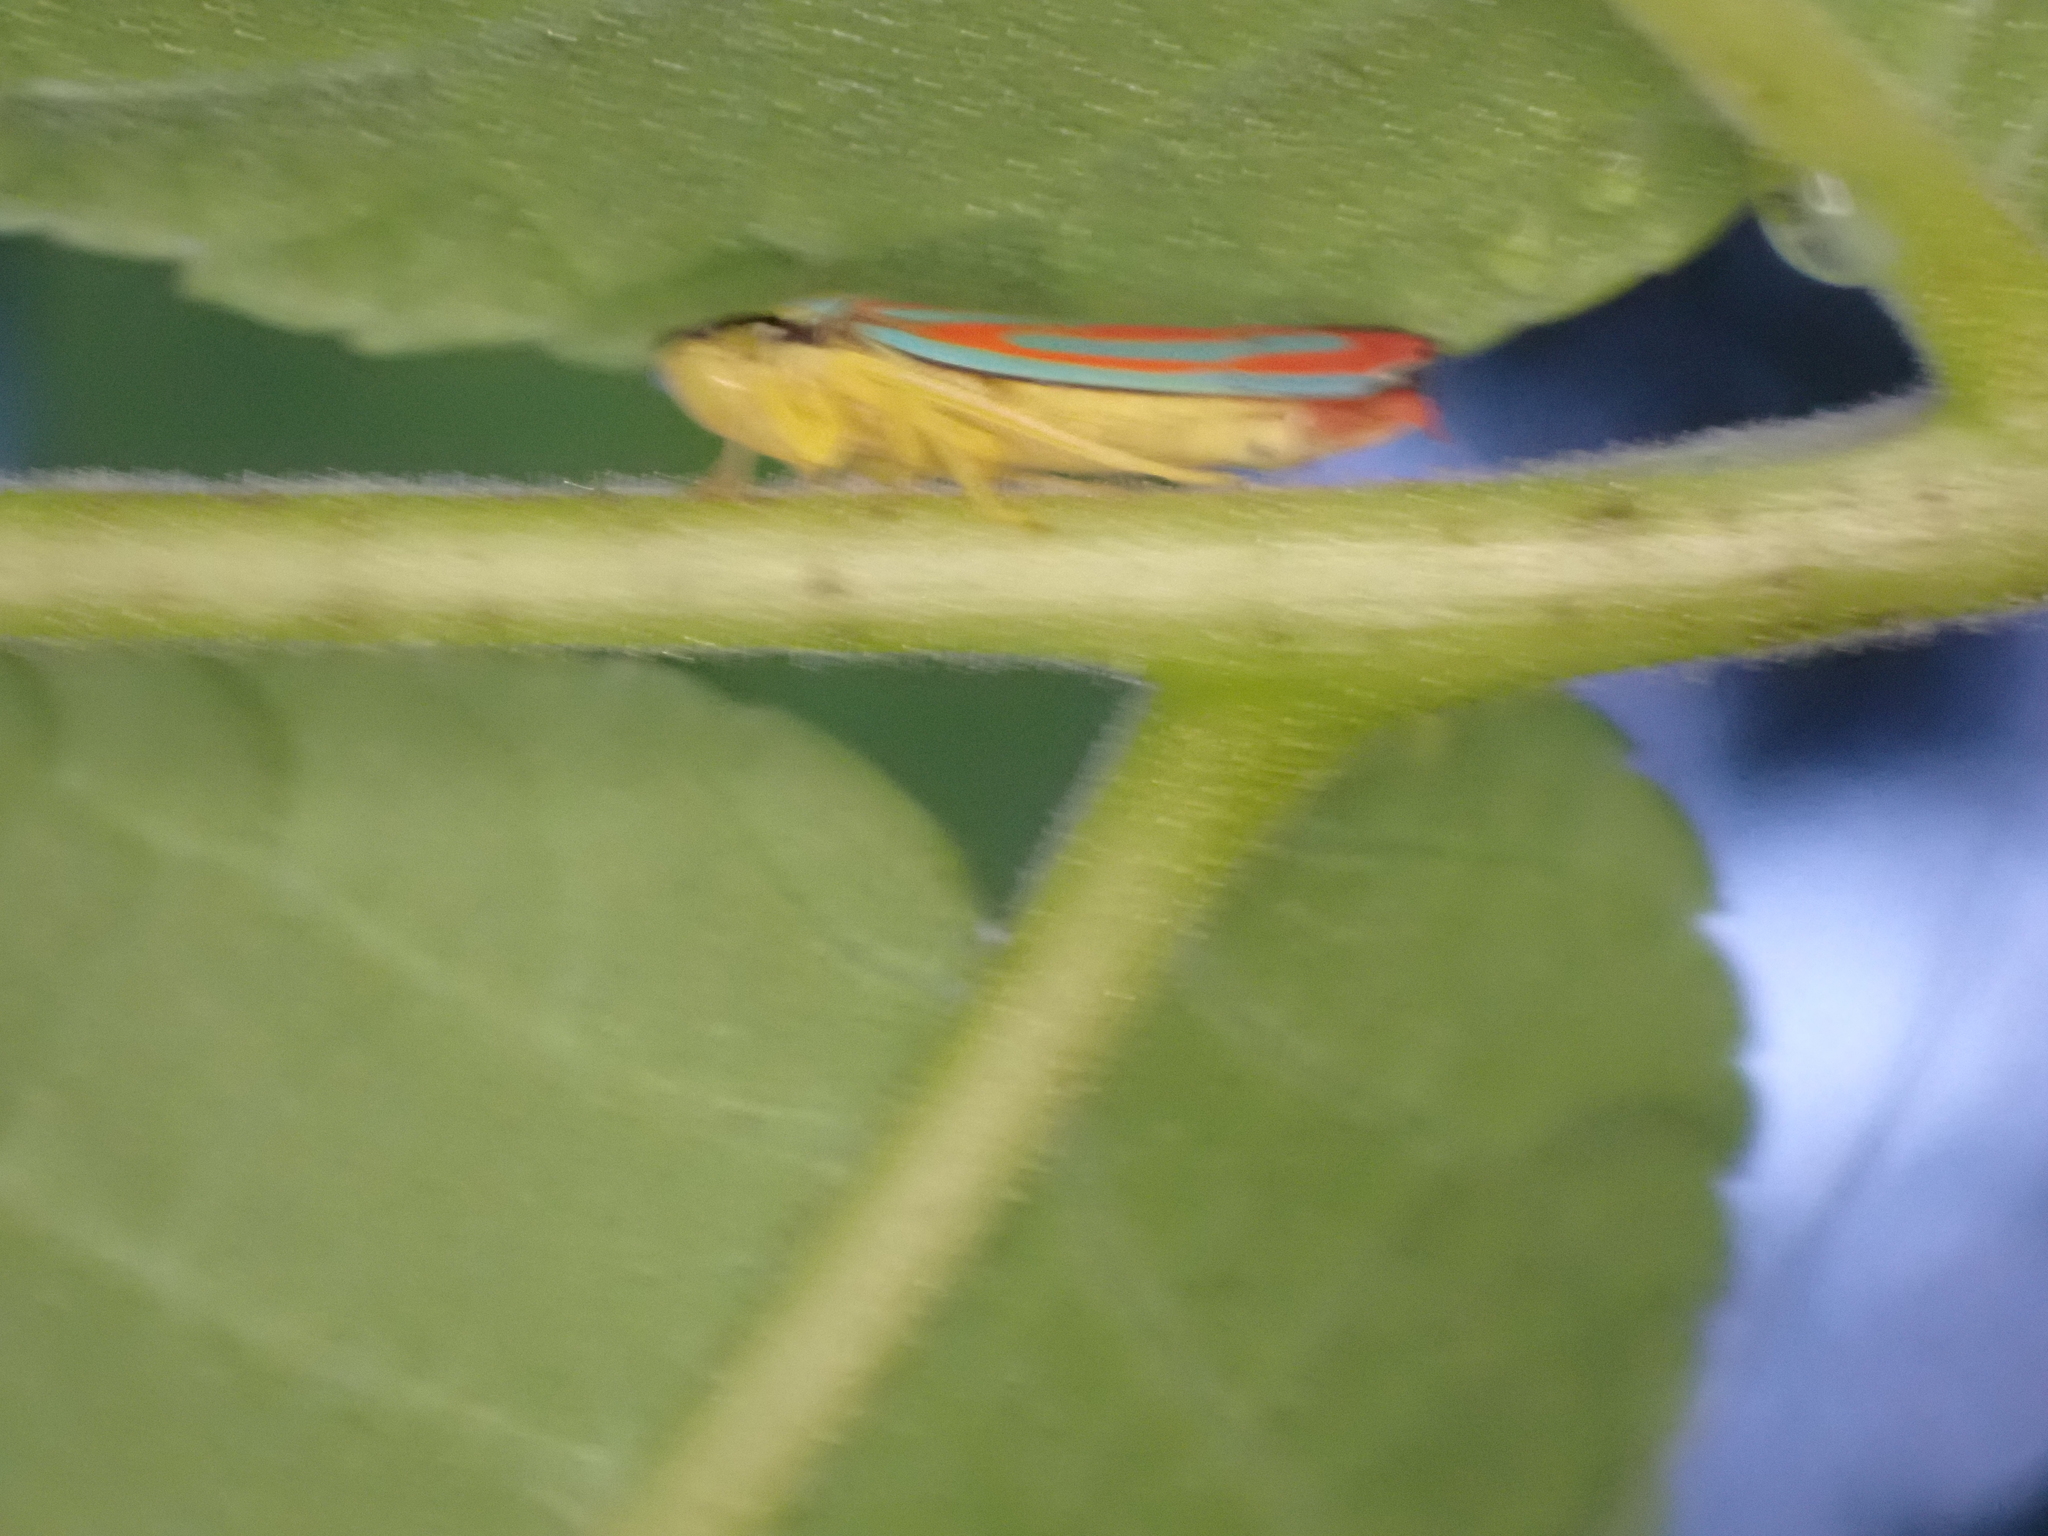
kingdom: Animalia
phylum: Arthropoda
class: Insecta
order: Hemiptera
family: Cicadellidae
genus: Graphocephala
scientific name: Graphocephala coccinea
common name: Candy-striped leafhopper
